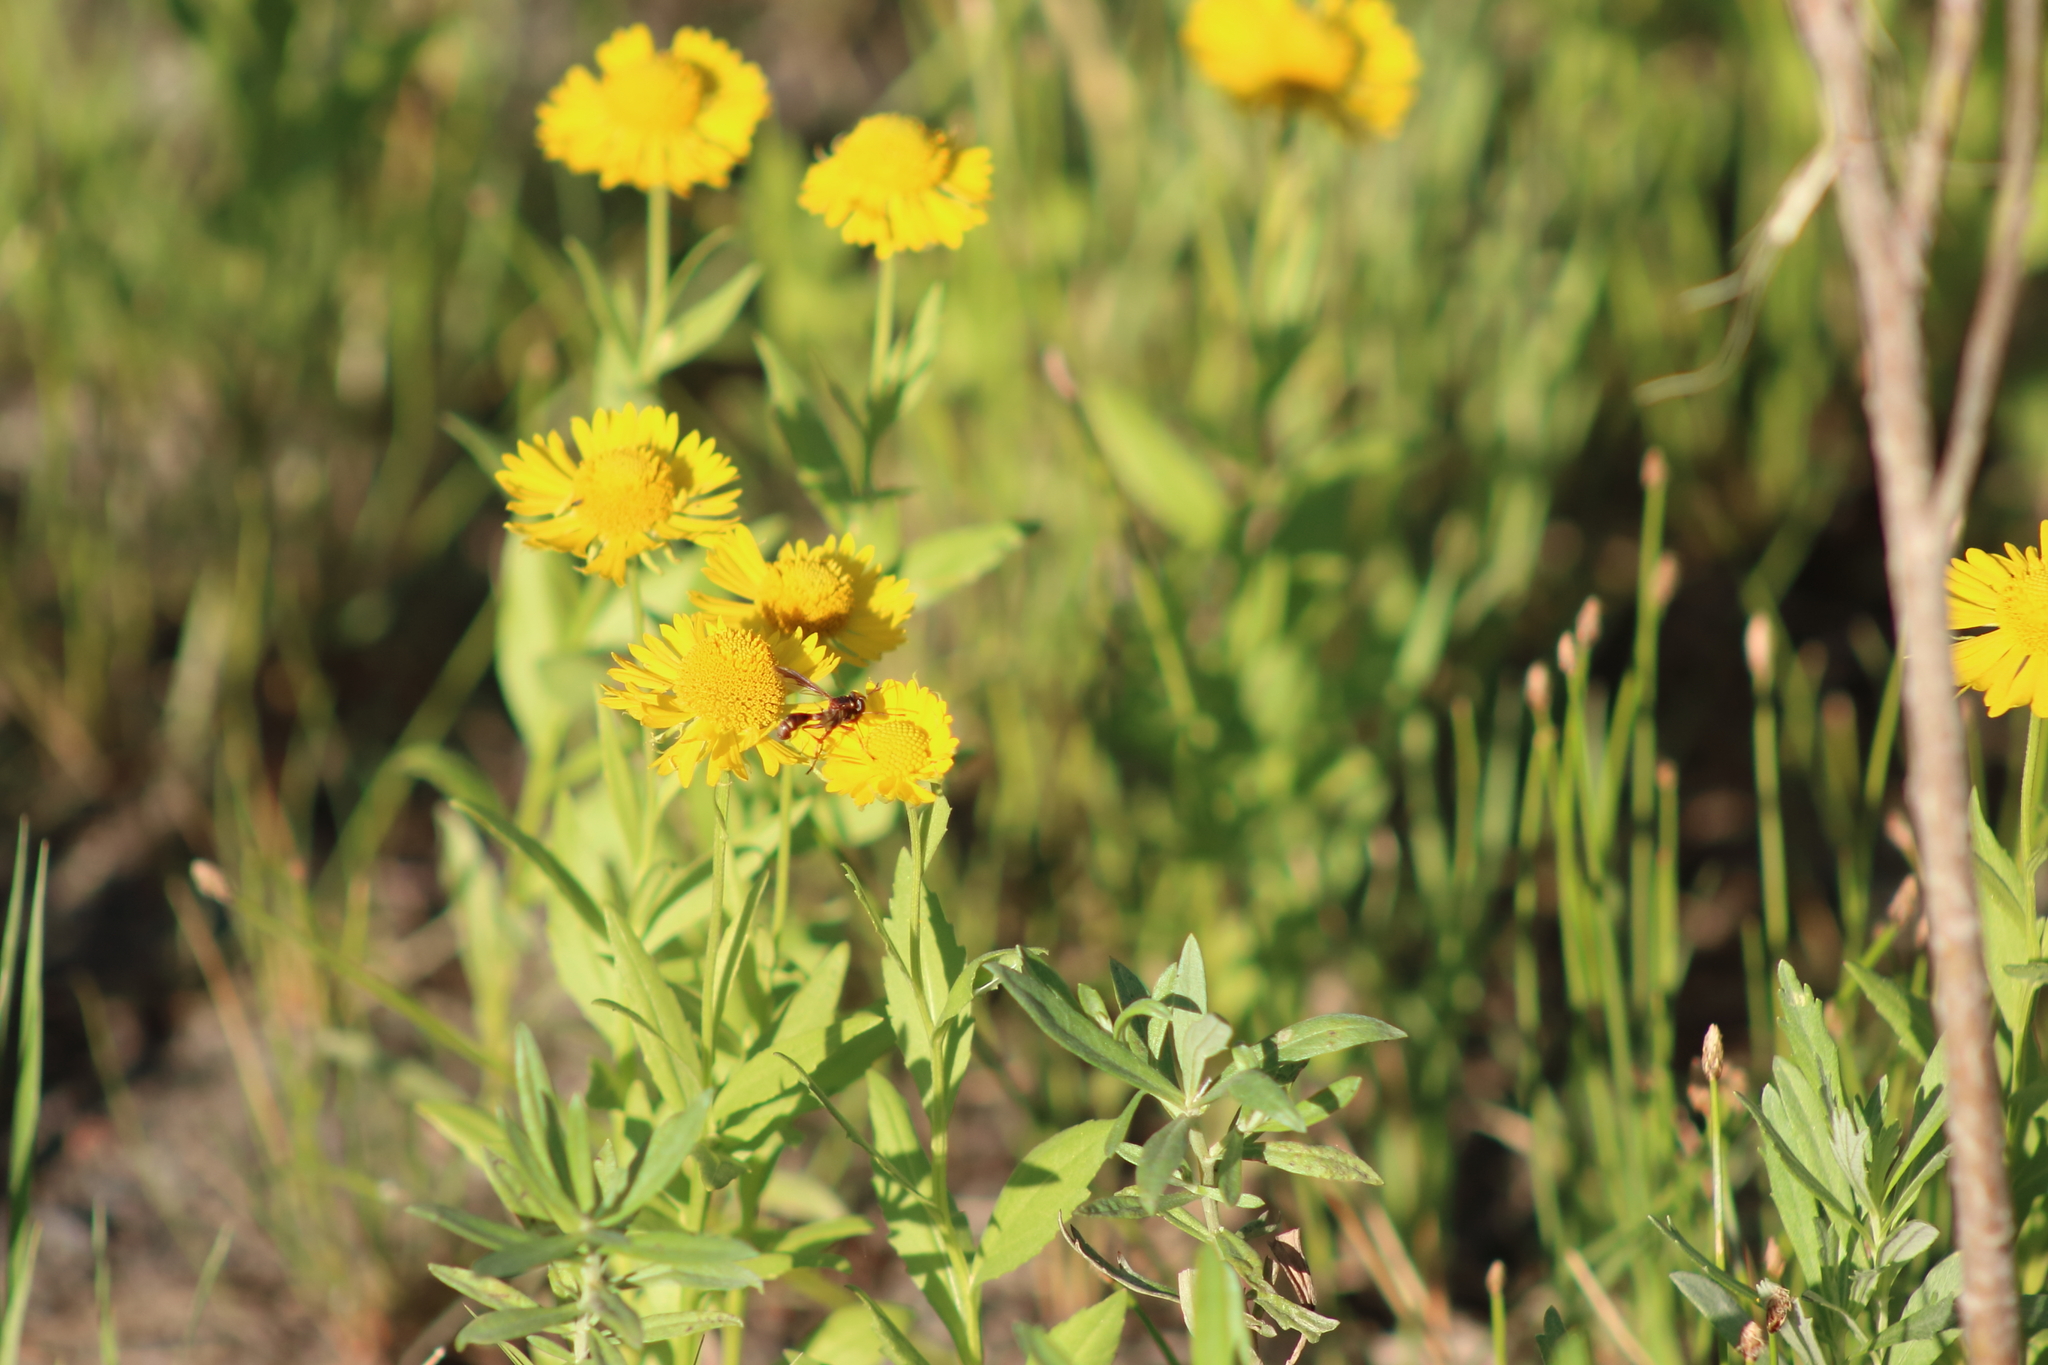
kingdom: Animalia
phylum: Arthropoda
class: Insecta
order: Diptera
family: Conopidae
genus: Physocephala
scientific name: Physocephala texana
